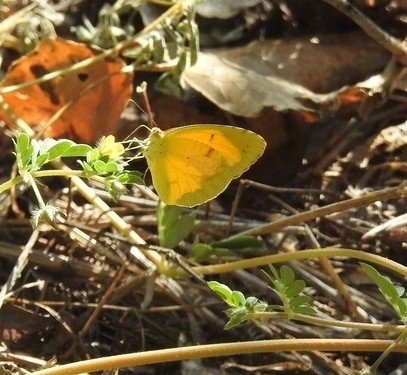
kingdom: Animalia
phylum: Arthropoda
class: Insecta
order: Lepidoptera
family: Pieridae
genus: Abaeis
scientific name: Abaeis nicippe
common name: Sleepy orange
